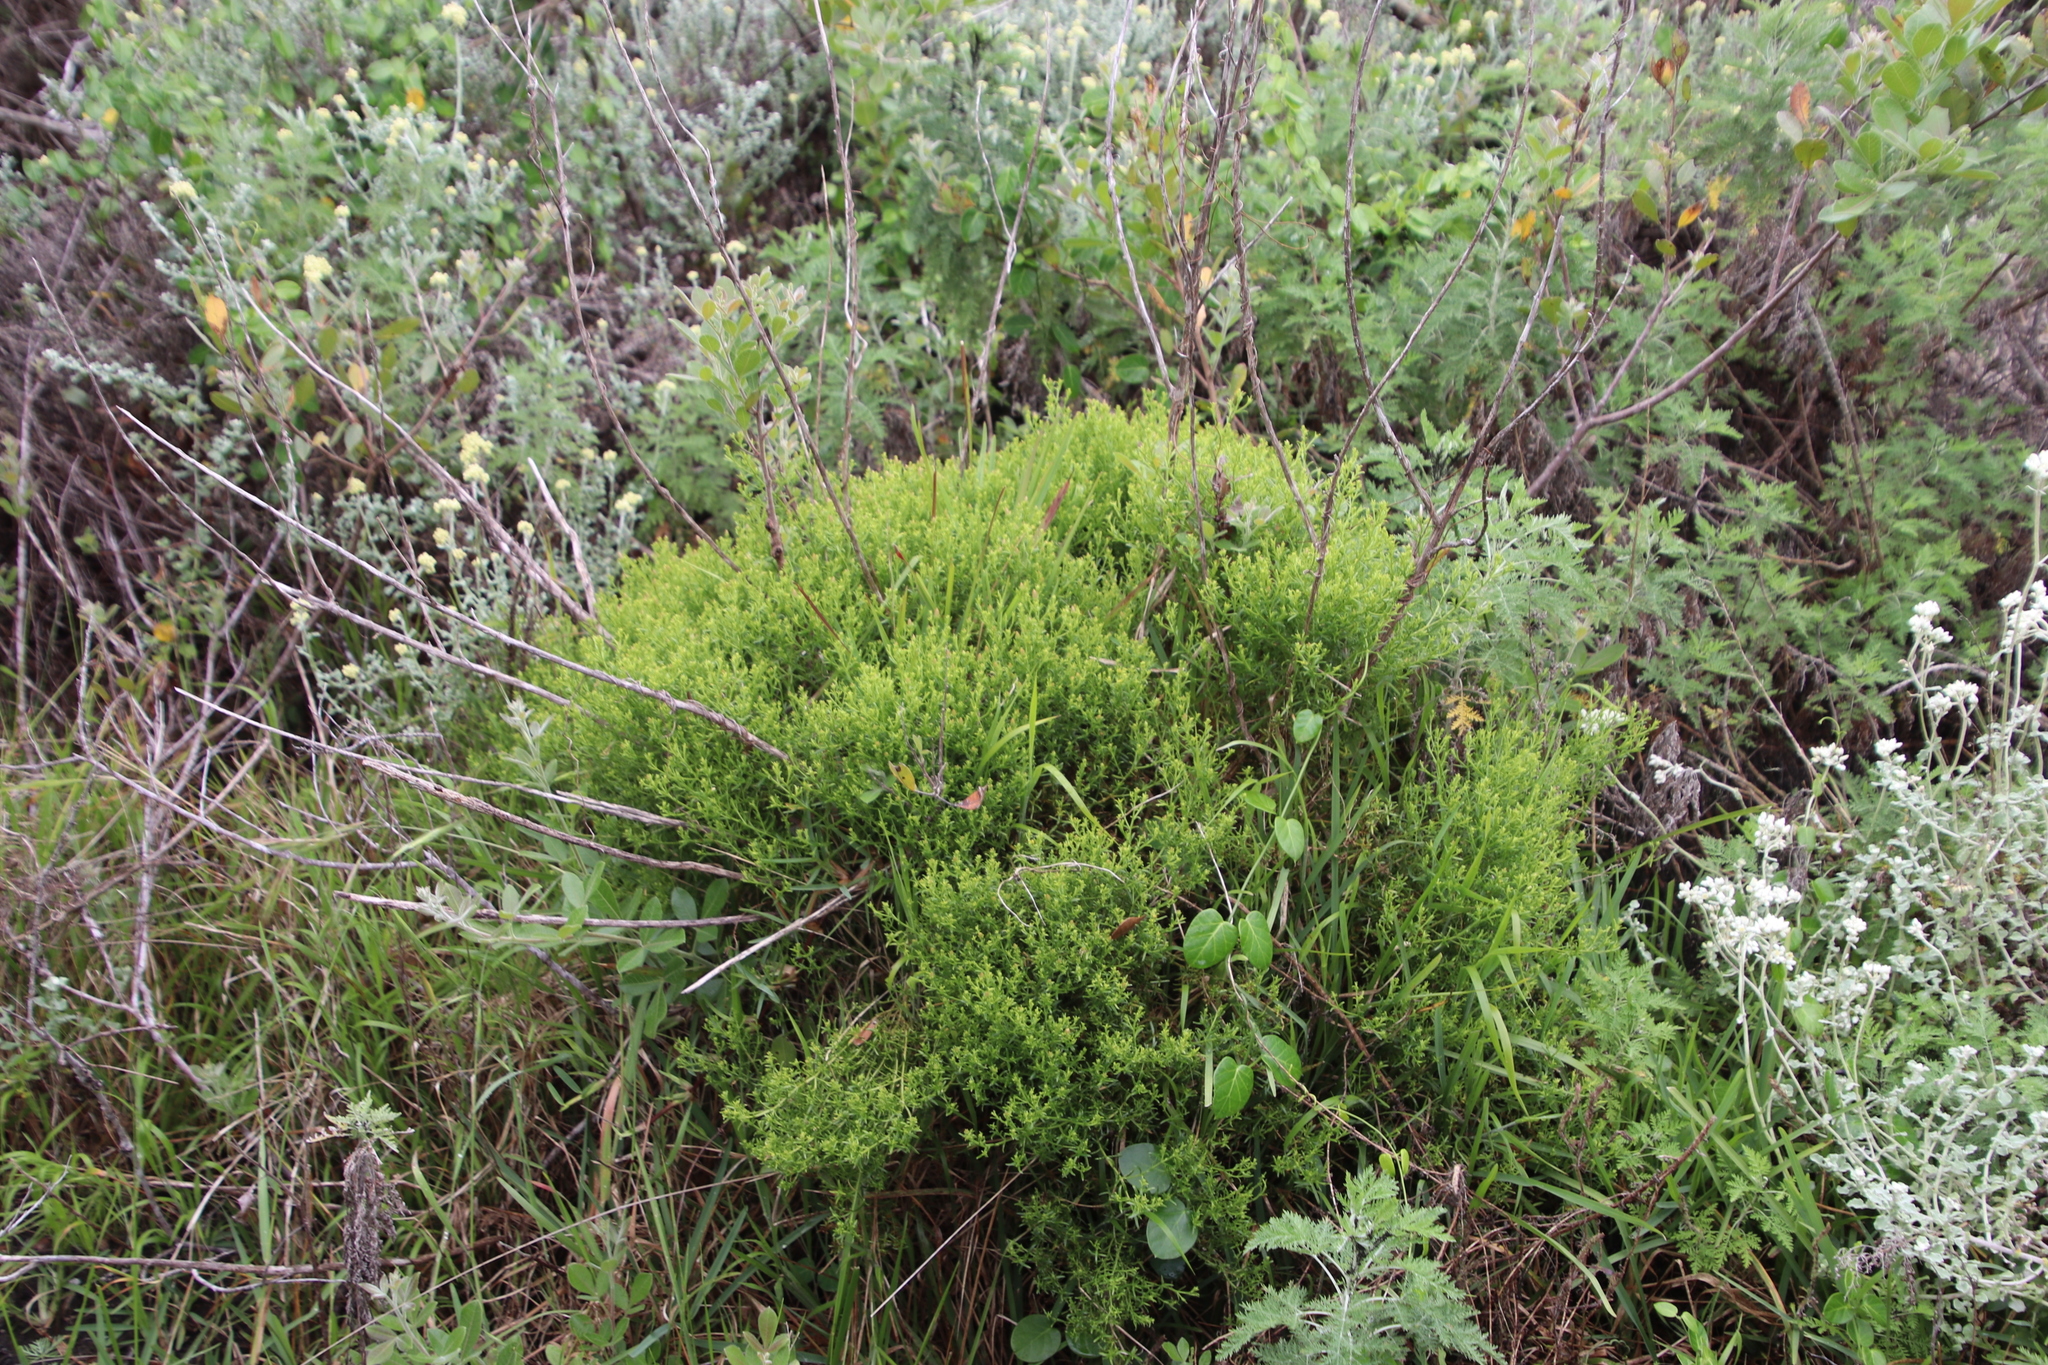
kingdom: Plantae
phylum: Tracheophyta
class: Magnoliopsida
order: Gentianales
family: Gentianaceae
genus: Chironia
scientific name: Chironia baccifera
